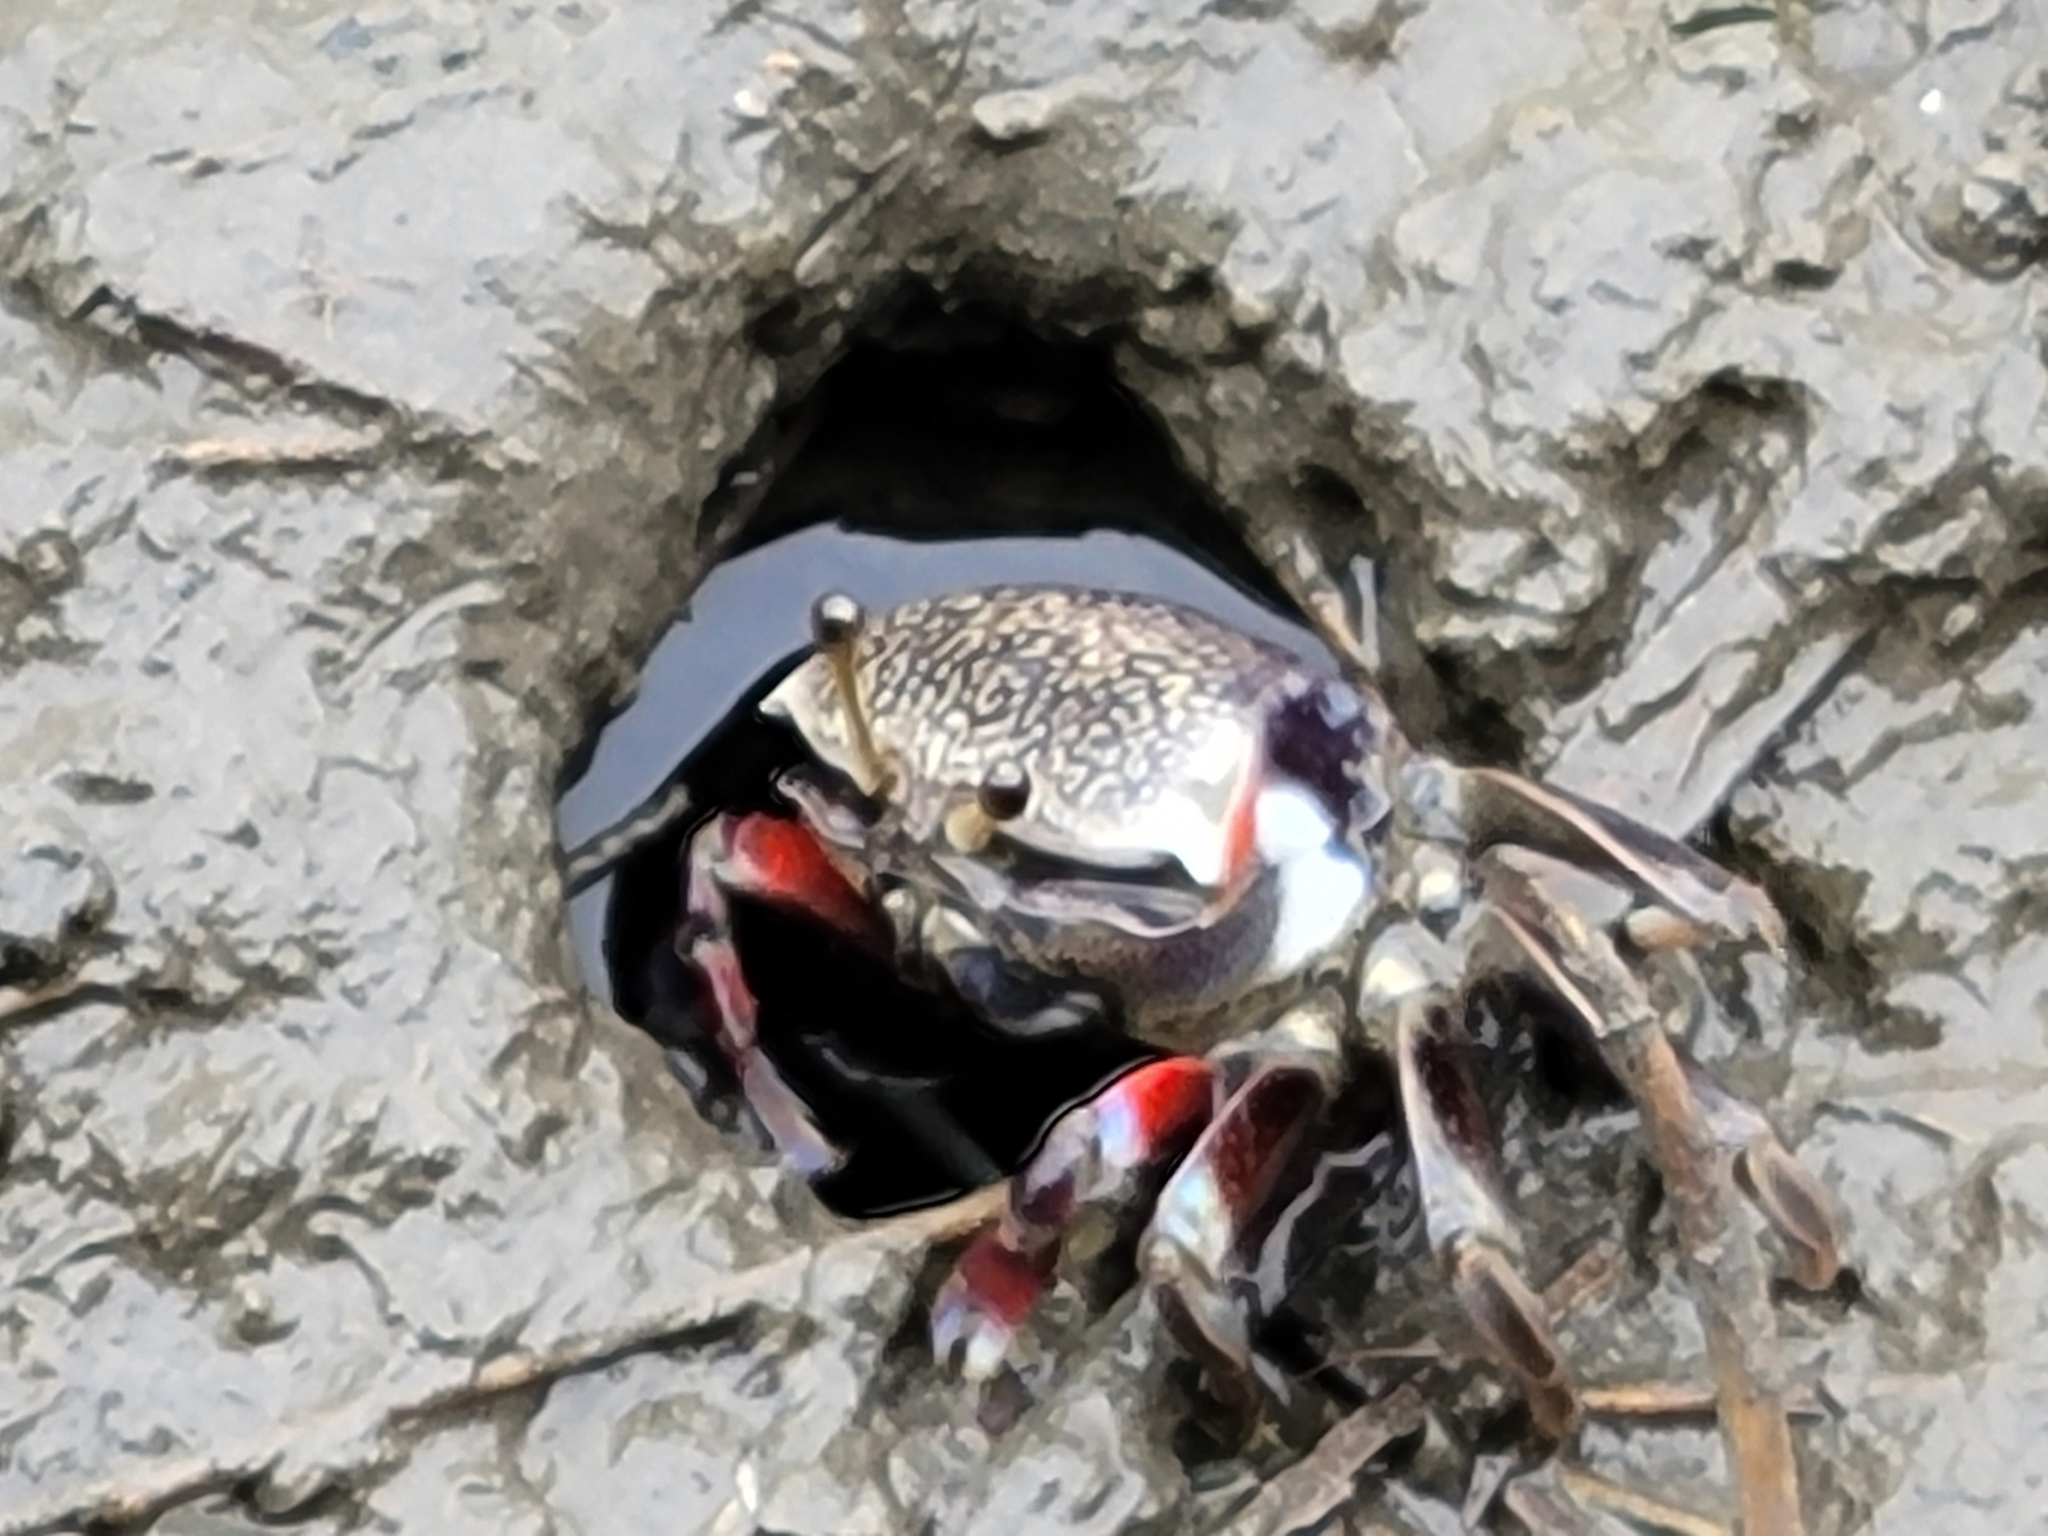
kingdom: Animalia
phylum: Arthropoda
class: Malacostraca
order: Decapoda
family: Ocypodidae
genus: Tubuca
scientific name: Tubuca arcuata
